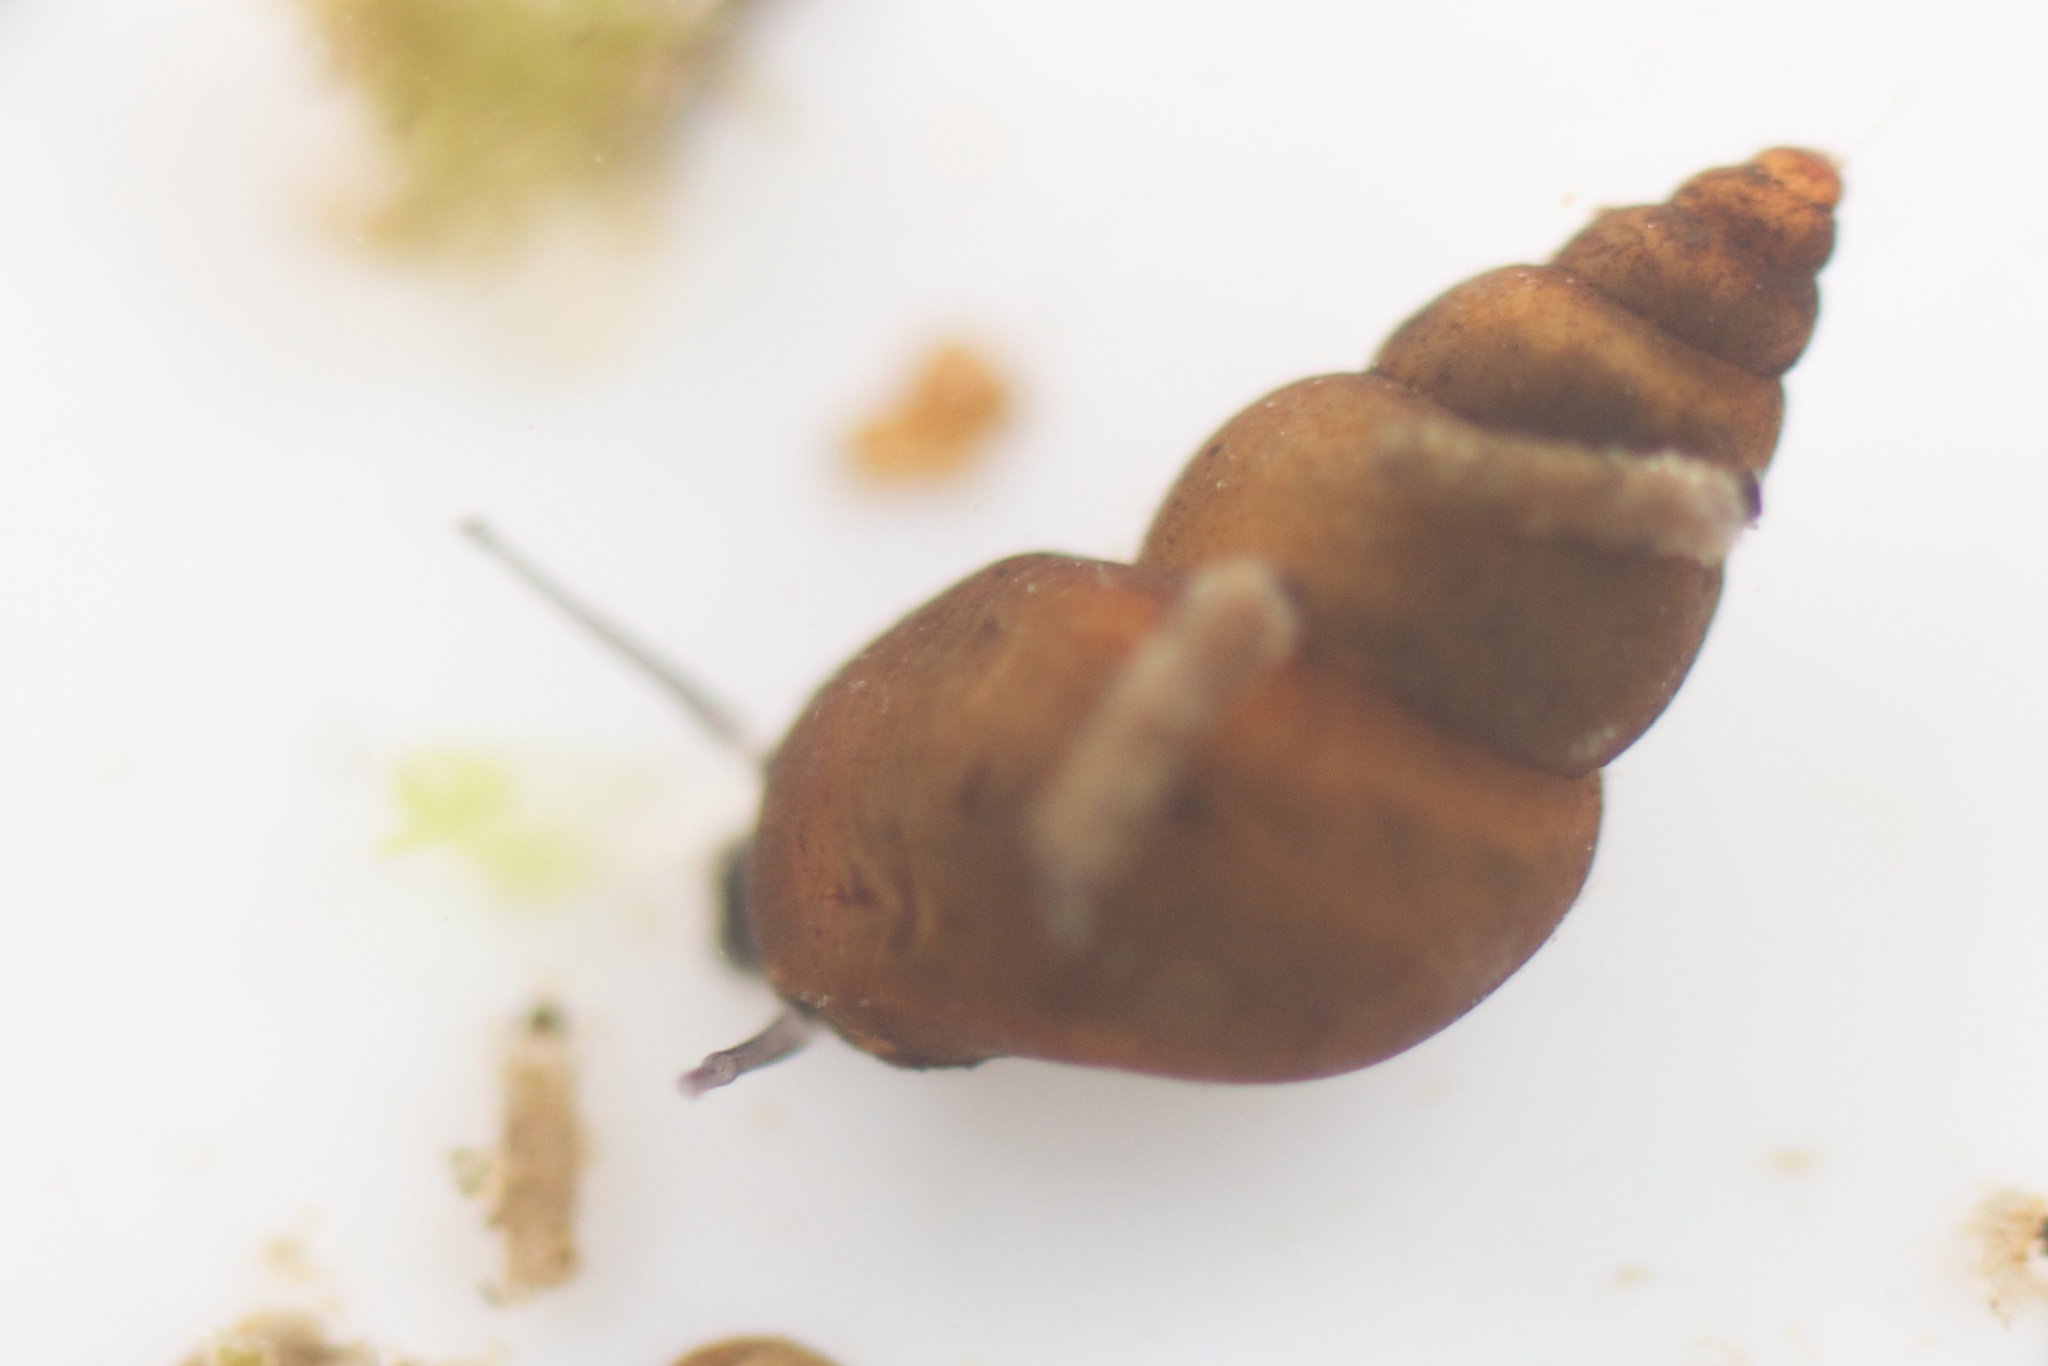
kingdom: Animalia
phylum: Mollusca
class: Gastropoda
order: Littorinimorpha
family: Tateidae
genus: Potamopyrgus
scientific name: Potamopyrgus antipodarum
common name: Jenkins' spire snail
